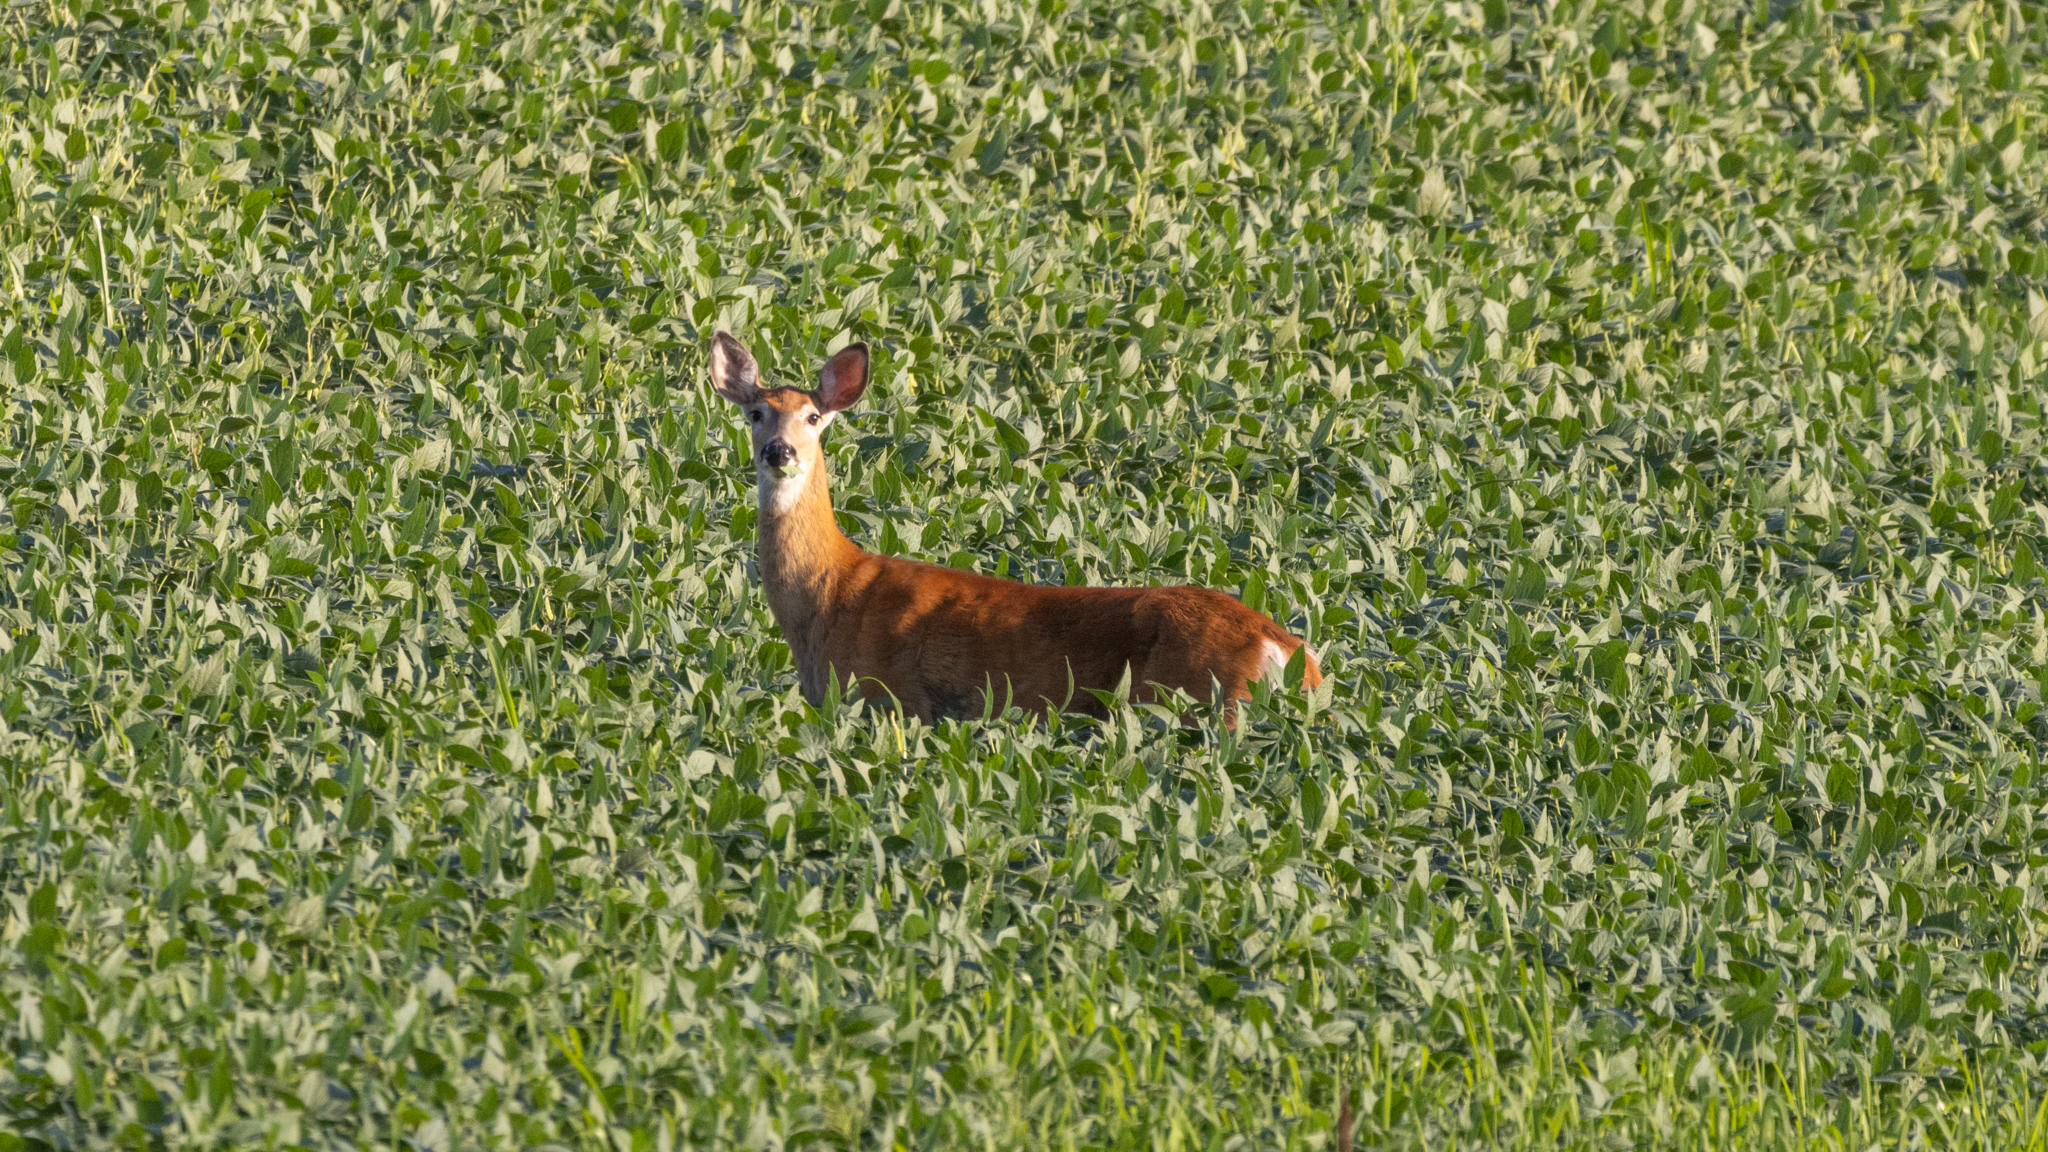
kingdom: Animalia
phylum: Chordata
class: Mammalia
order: Artiodactyla
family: Cervidae
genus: Odocoileus
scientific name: Odocoileus virginianus
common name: White-tailed deer
